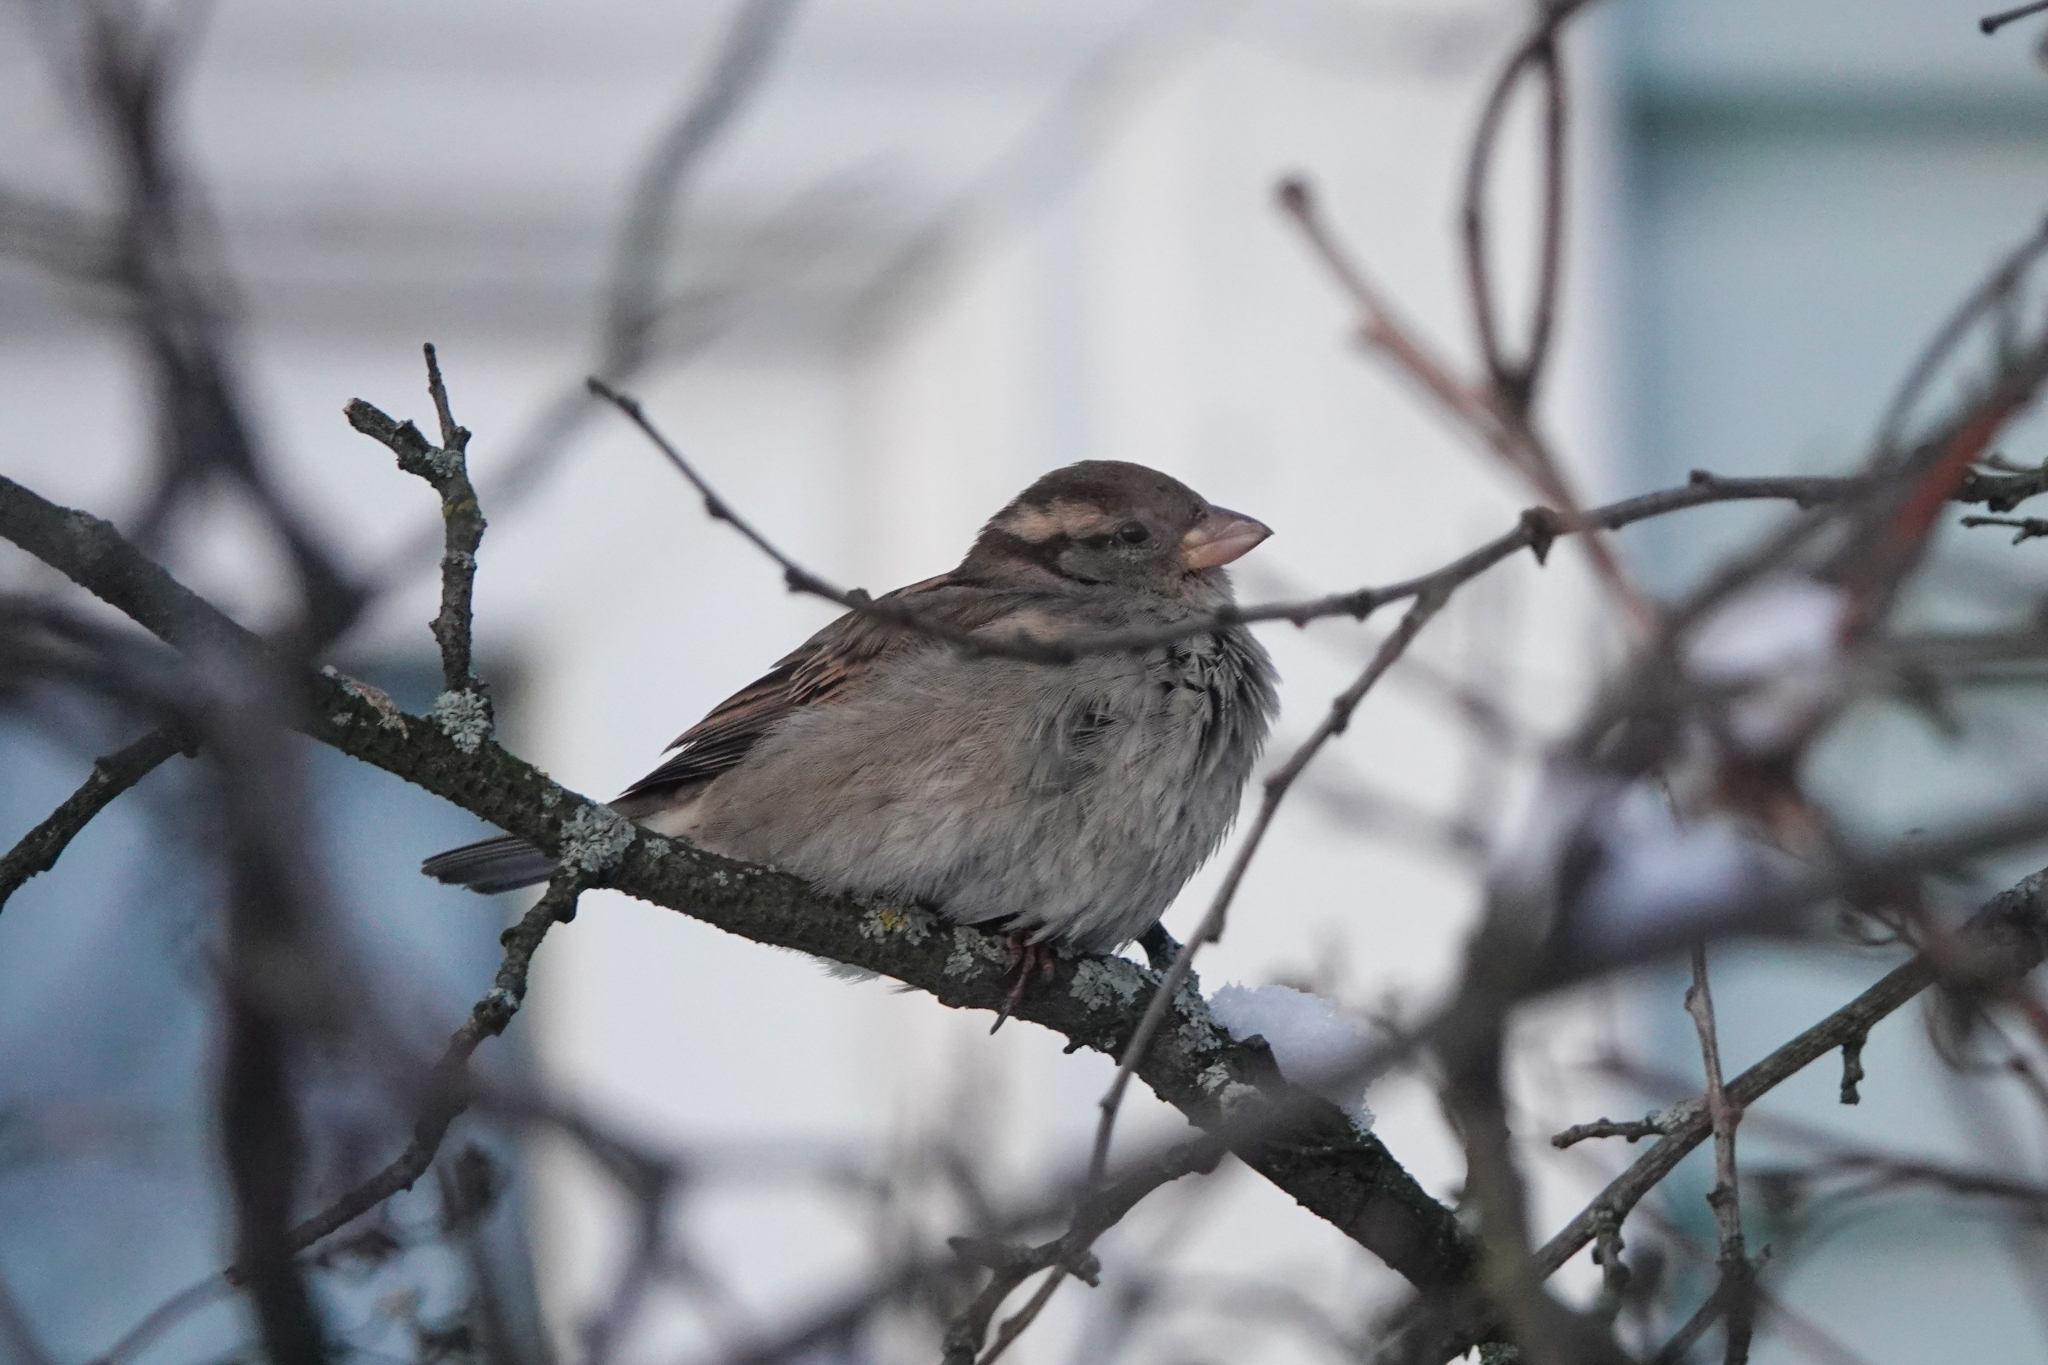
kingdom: Animalia
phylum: Chordata
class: Aves
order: Passeriformes
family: Passeridae
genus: Passer
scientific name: Passer domesticus
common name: House sparrow
